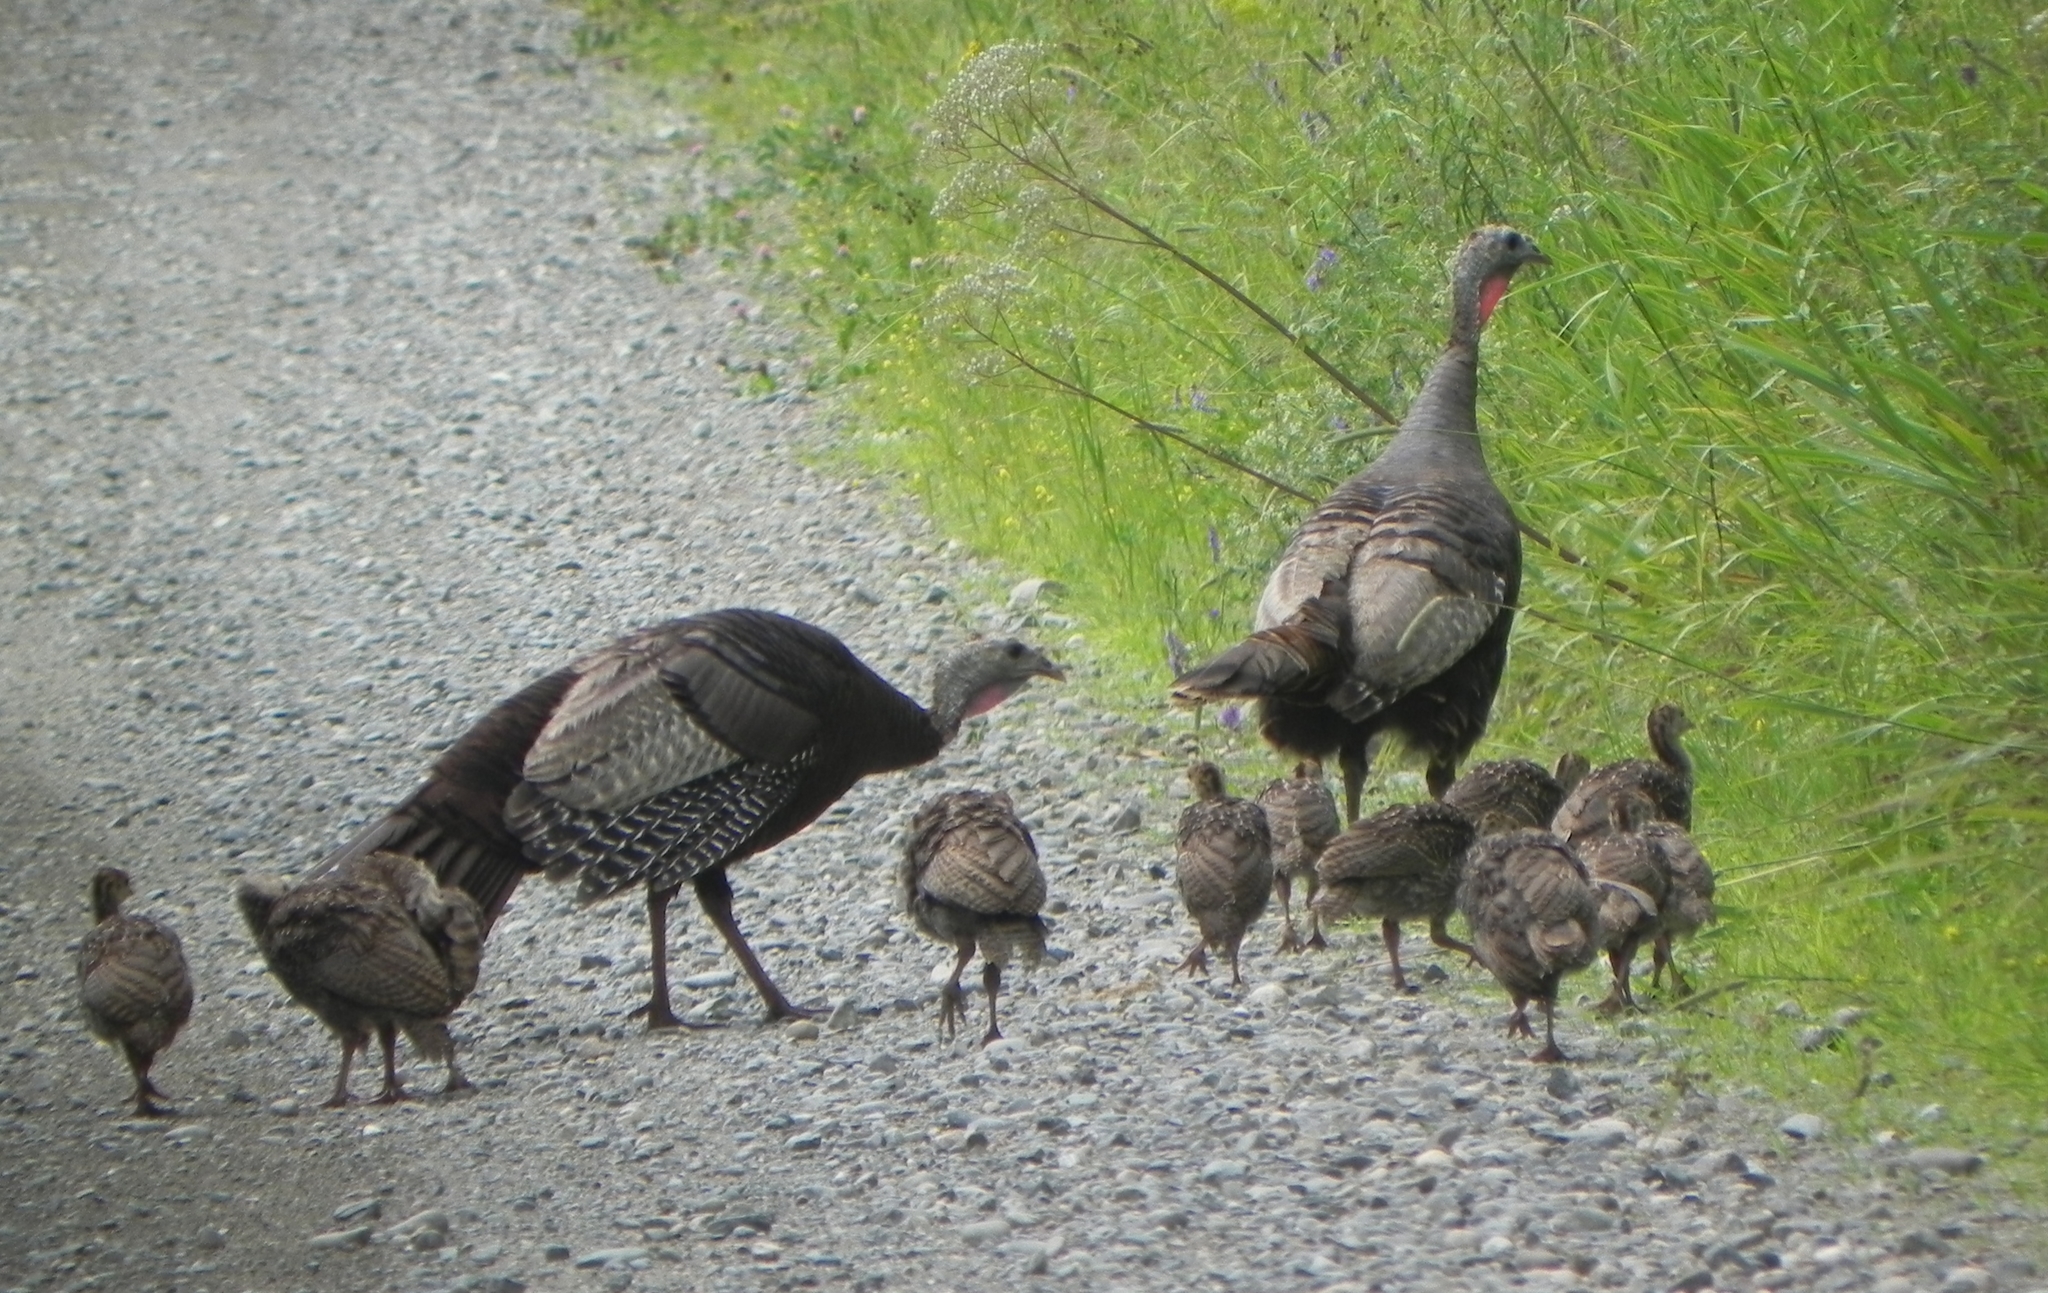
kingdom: Animalia
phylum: Chordata
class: Aves
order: Galliformes
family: Phasianidae
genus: Meleagris
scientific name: Meleagris gallopavo
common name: Wild turkey
